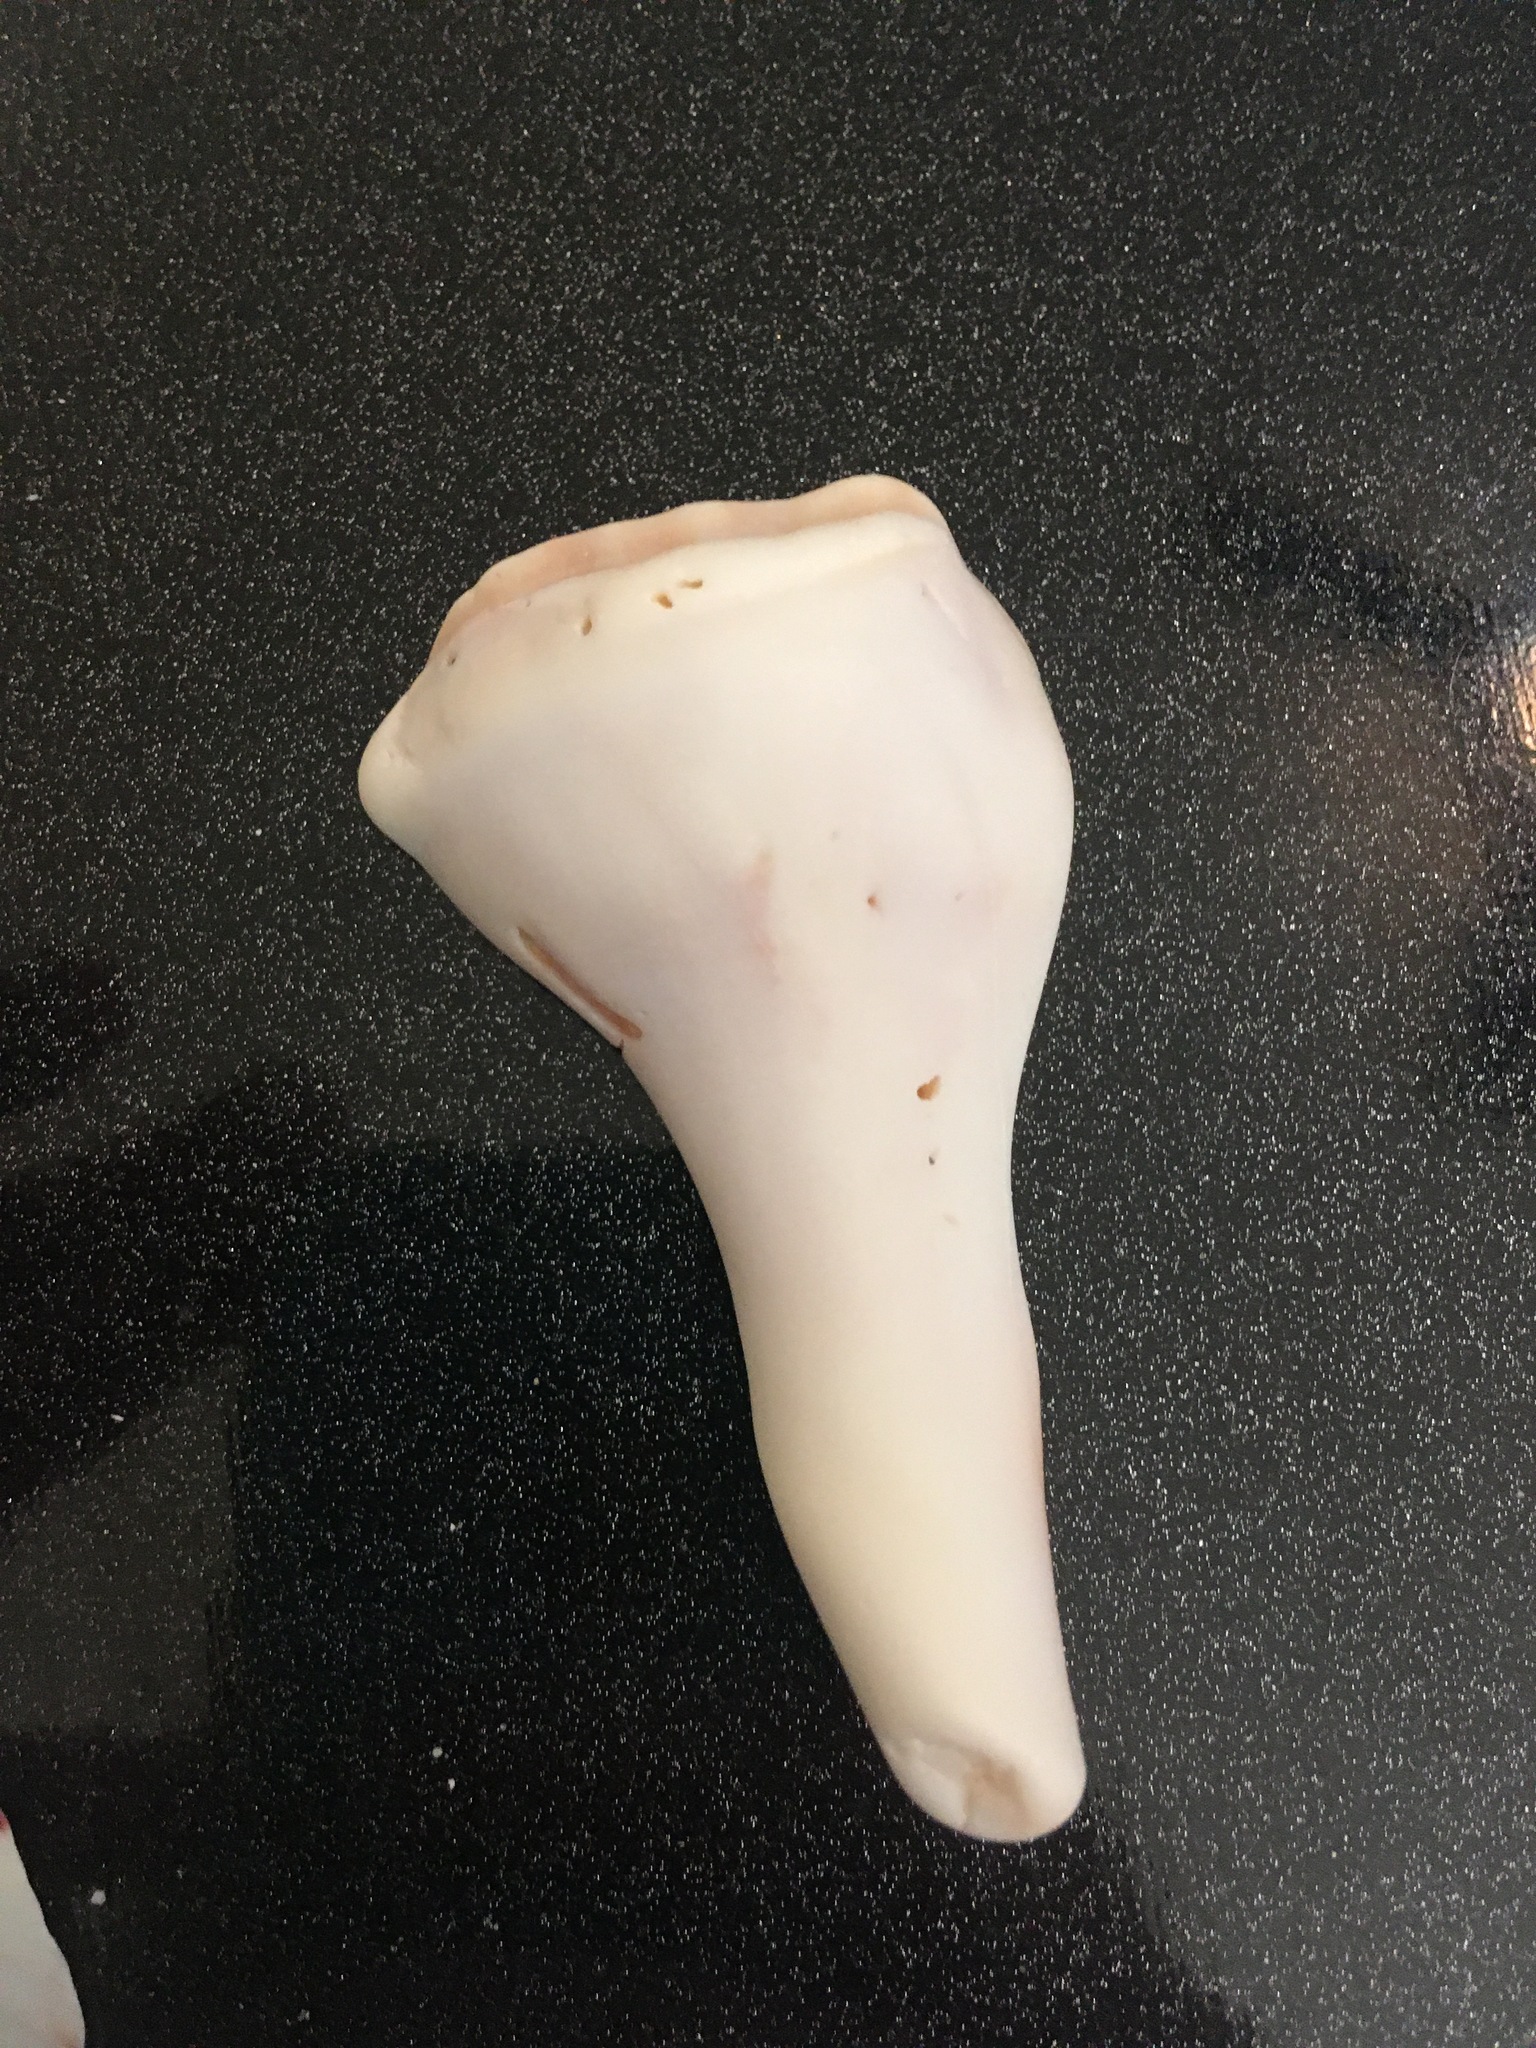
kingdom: Animalia
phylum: Mollusca
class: Gastropoda
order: Neogastropoda
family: Busyconidae
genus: Sinistrofulgur
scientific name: Sinistrofulgur sinistrum
